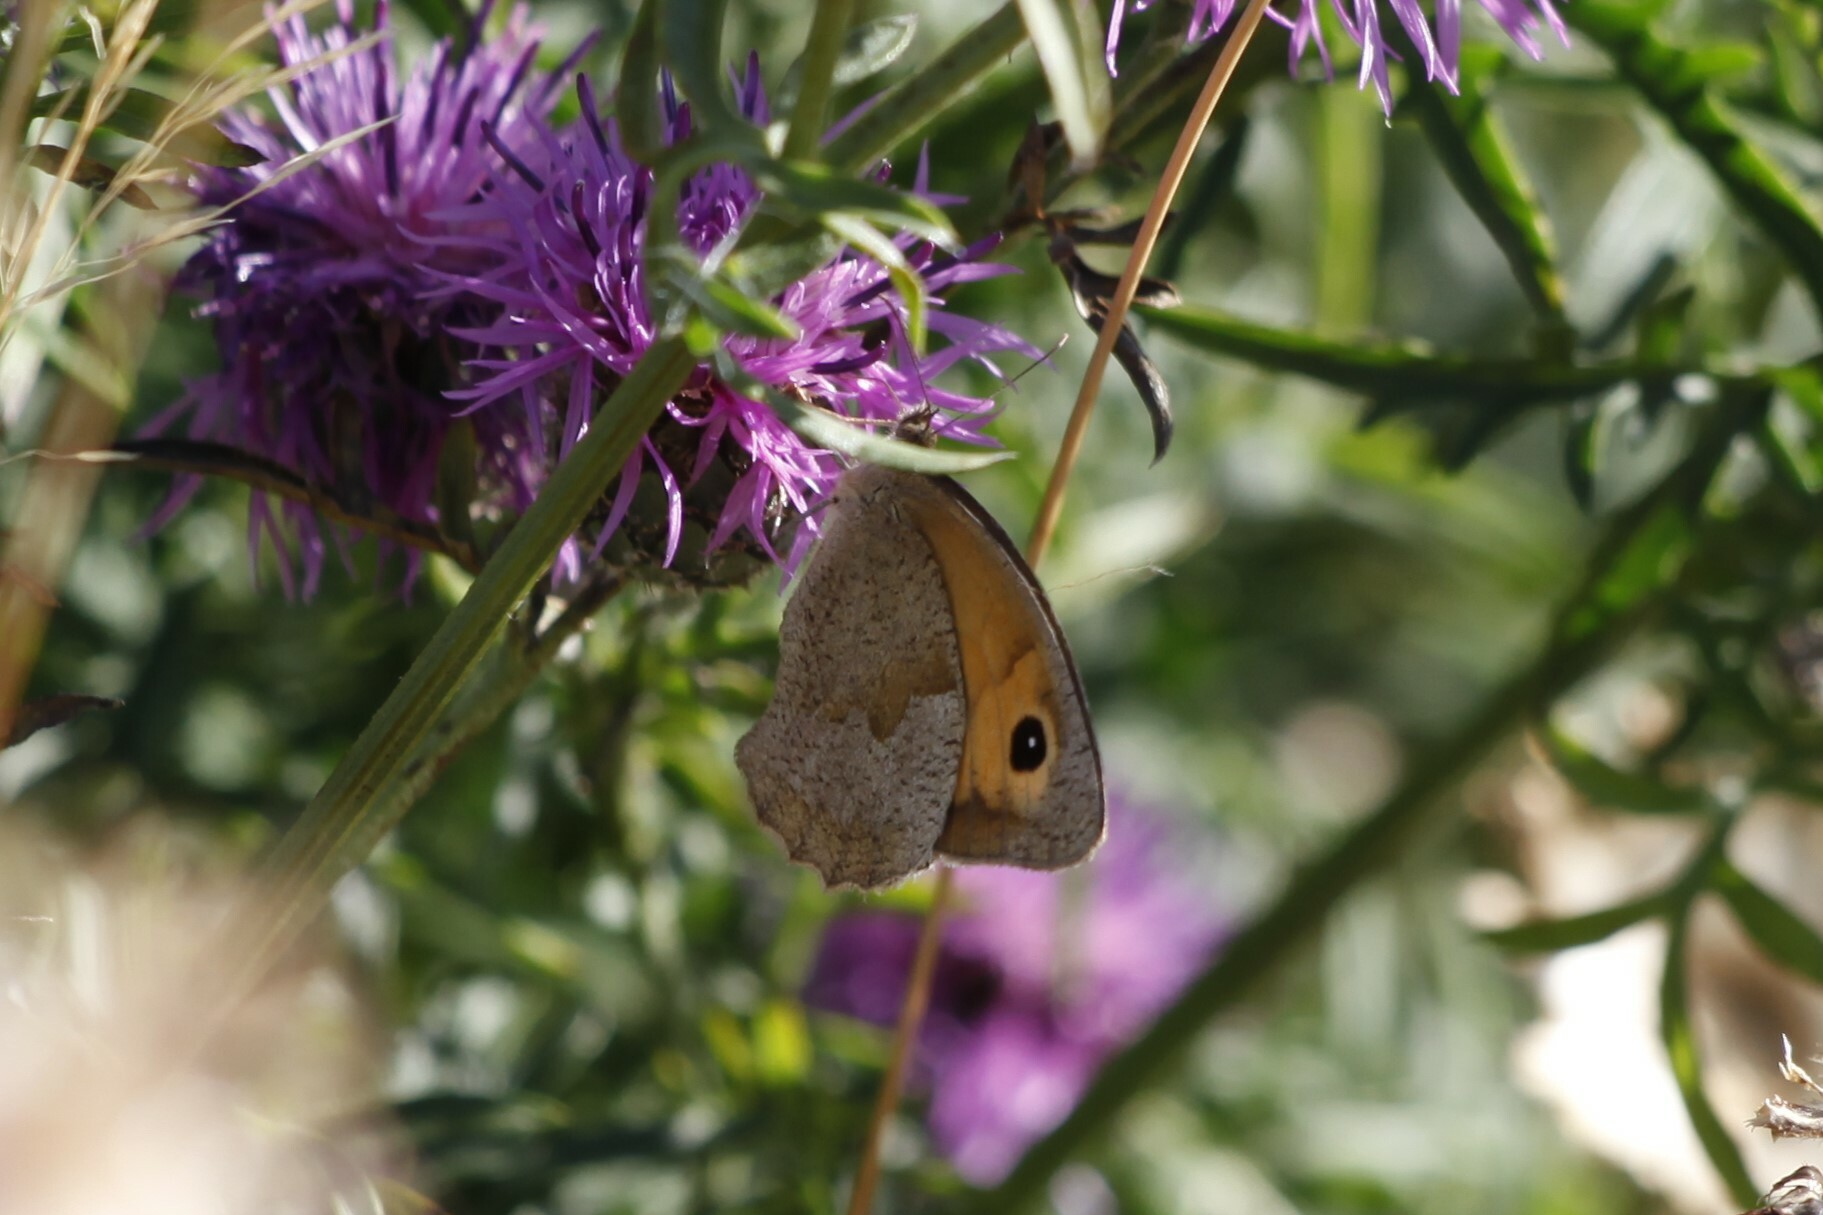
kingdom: Animalia
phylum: Arthropoda
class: Insecta
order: Lepidoptera
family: Nymphalidae
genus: Maniola
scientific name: Maniola jurtina
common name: Meadow brown
